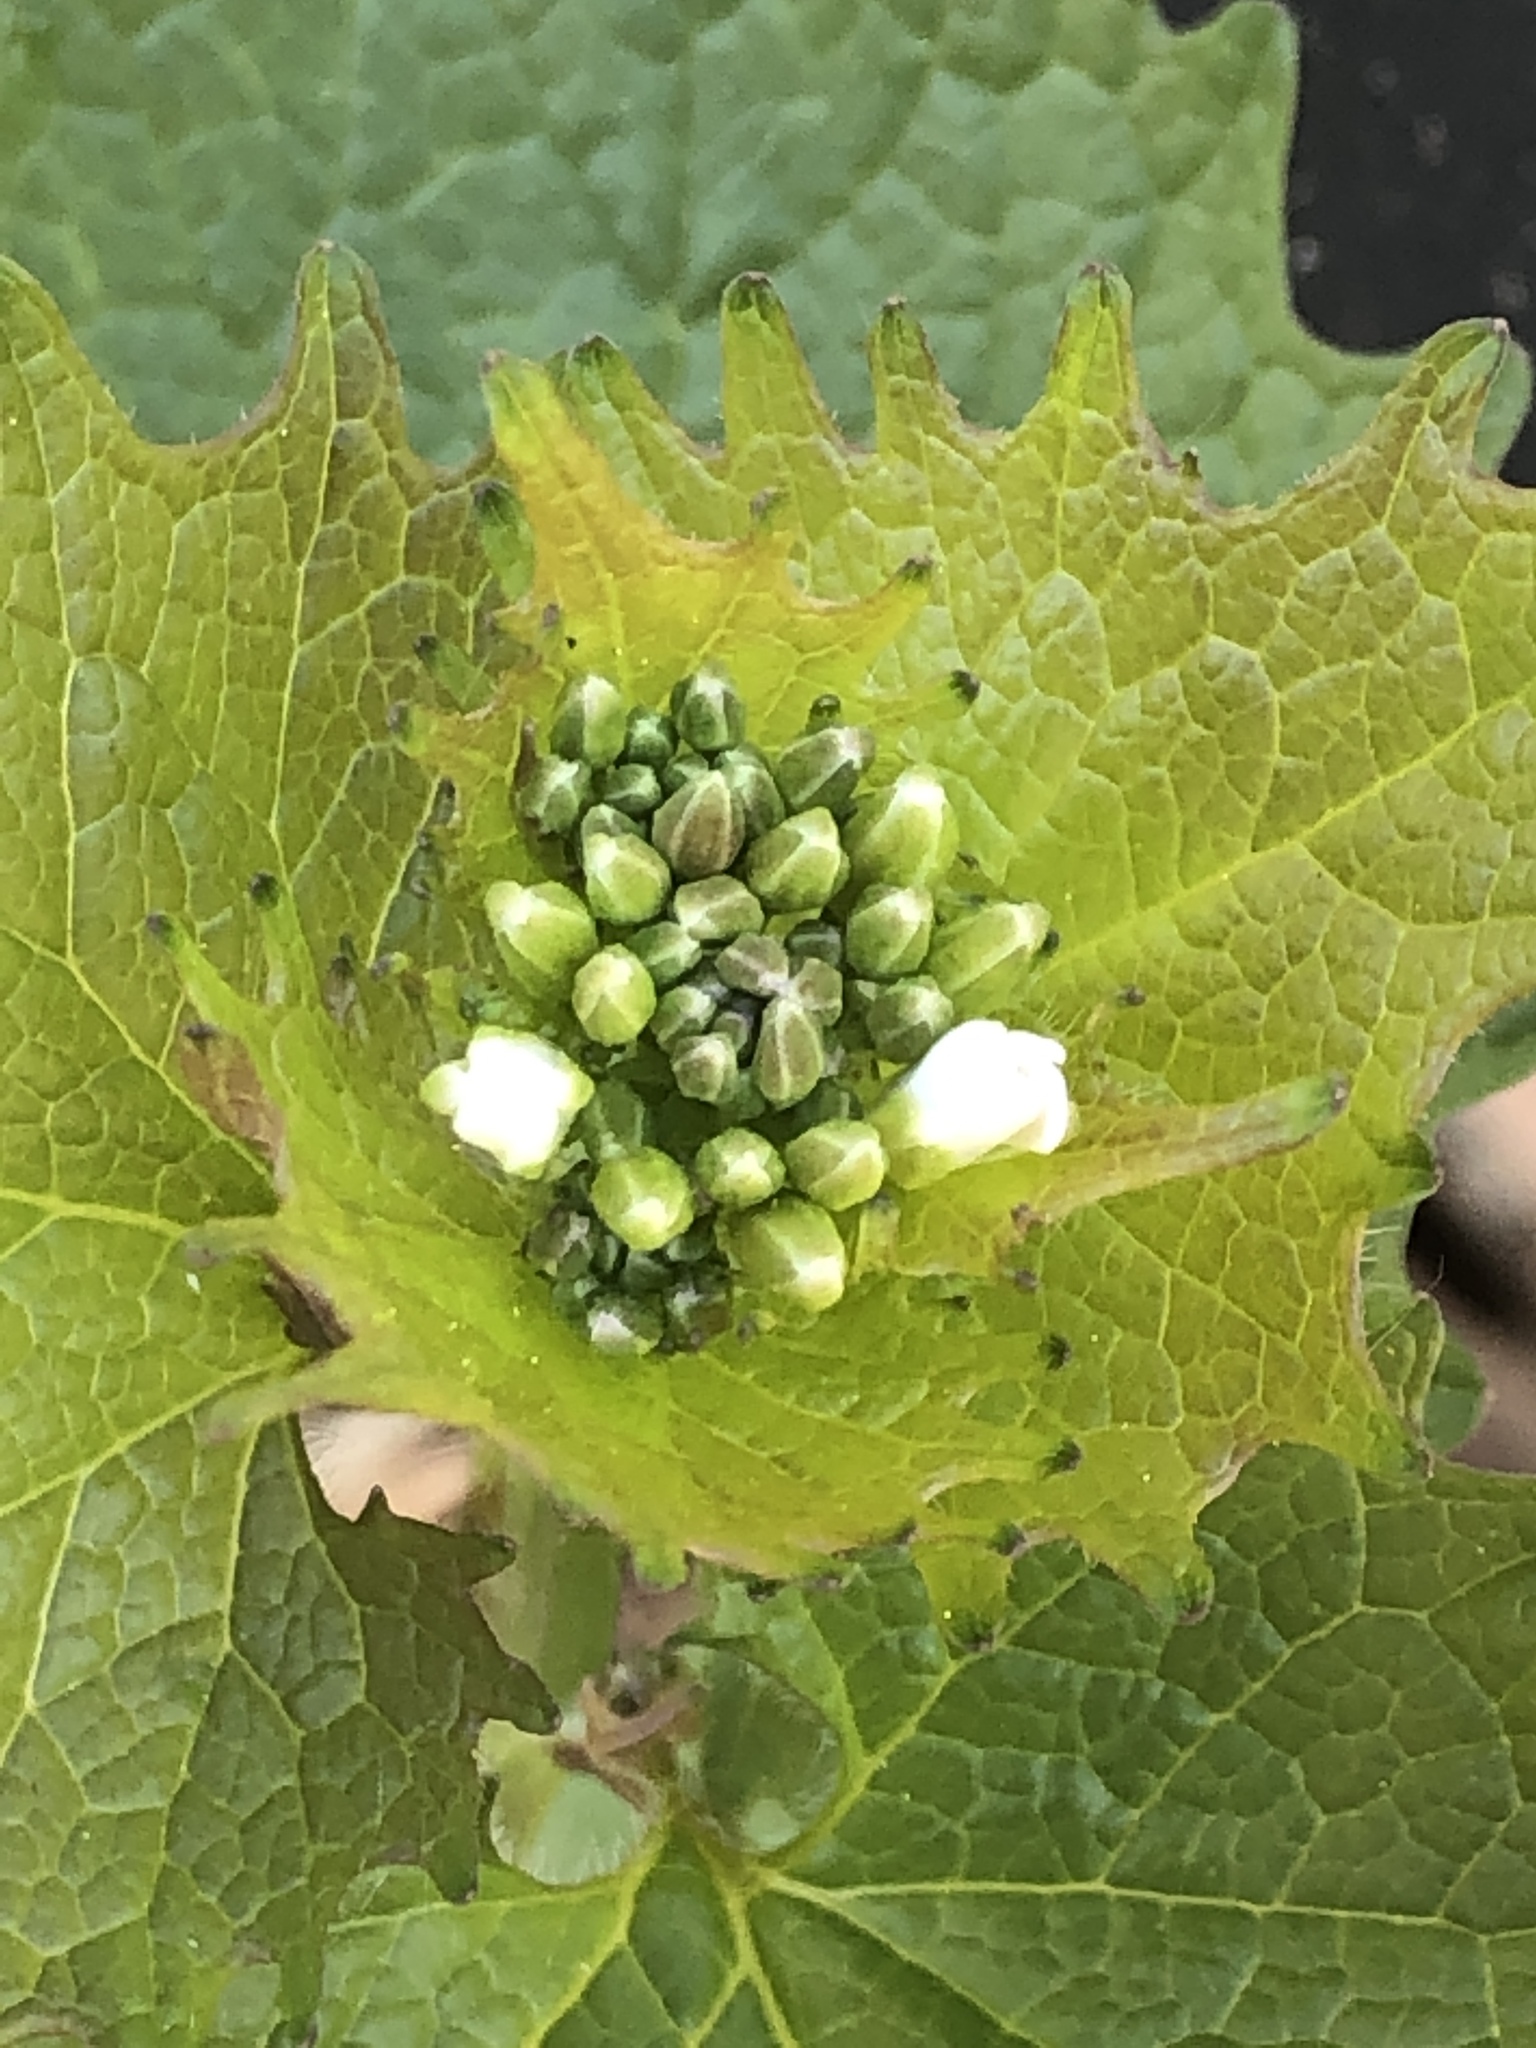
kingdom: Plantae
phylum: Tracheophyta
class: Magnoliopsida
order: Brassicales
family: Brassicaceae
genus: Alliaria
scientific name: Alliaria petiolata
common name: Garlic mustard
